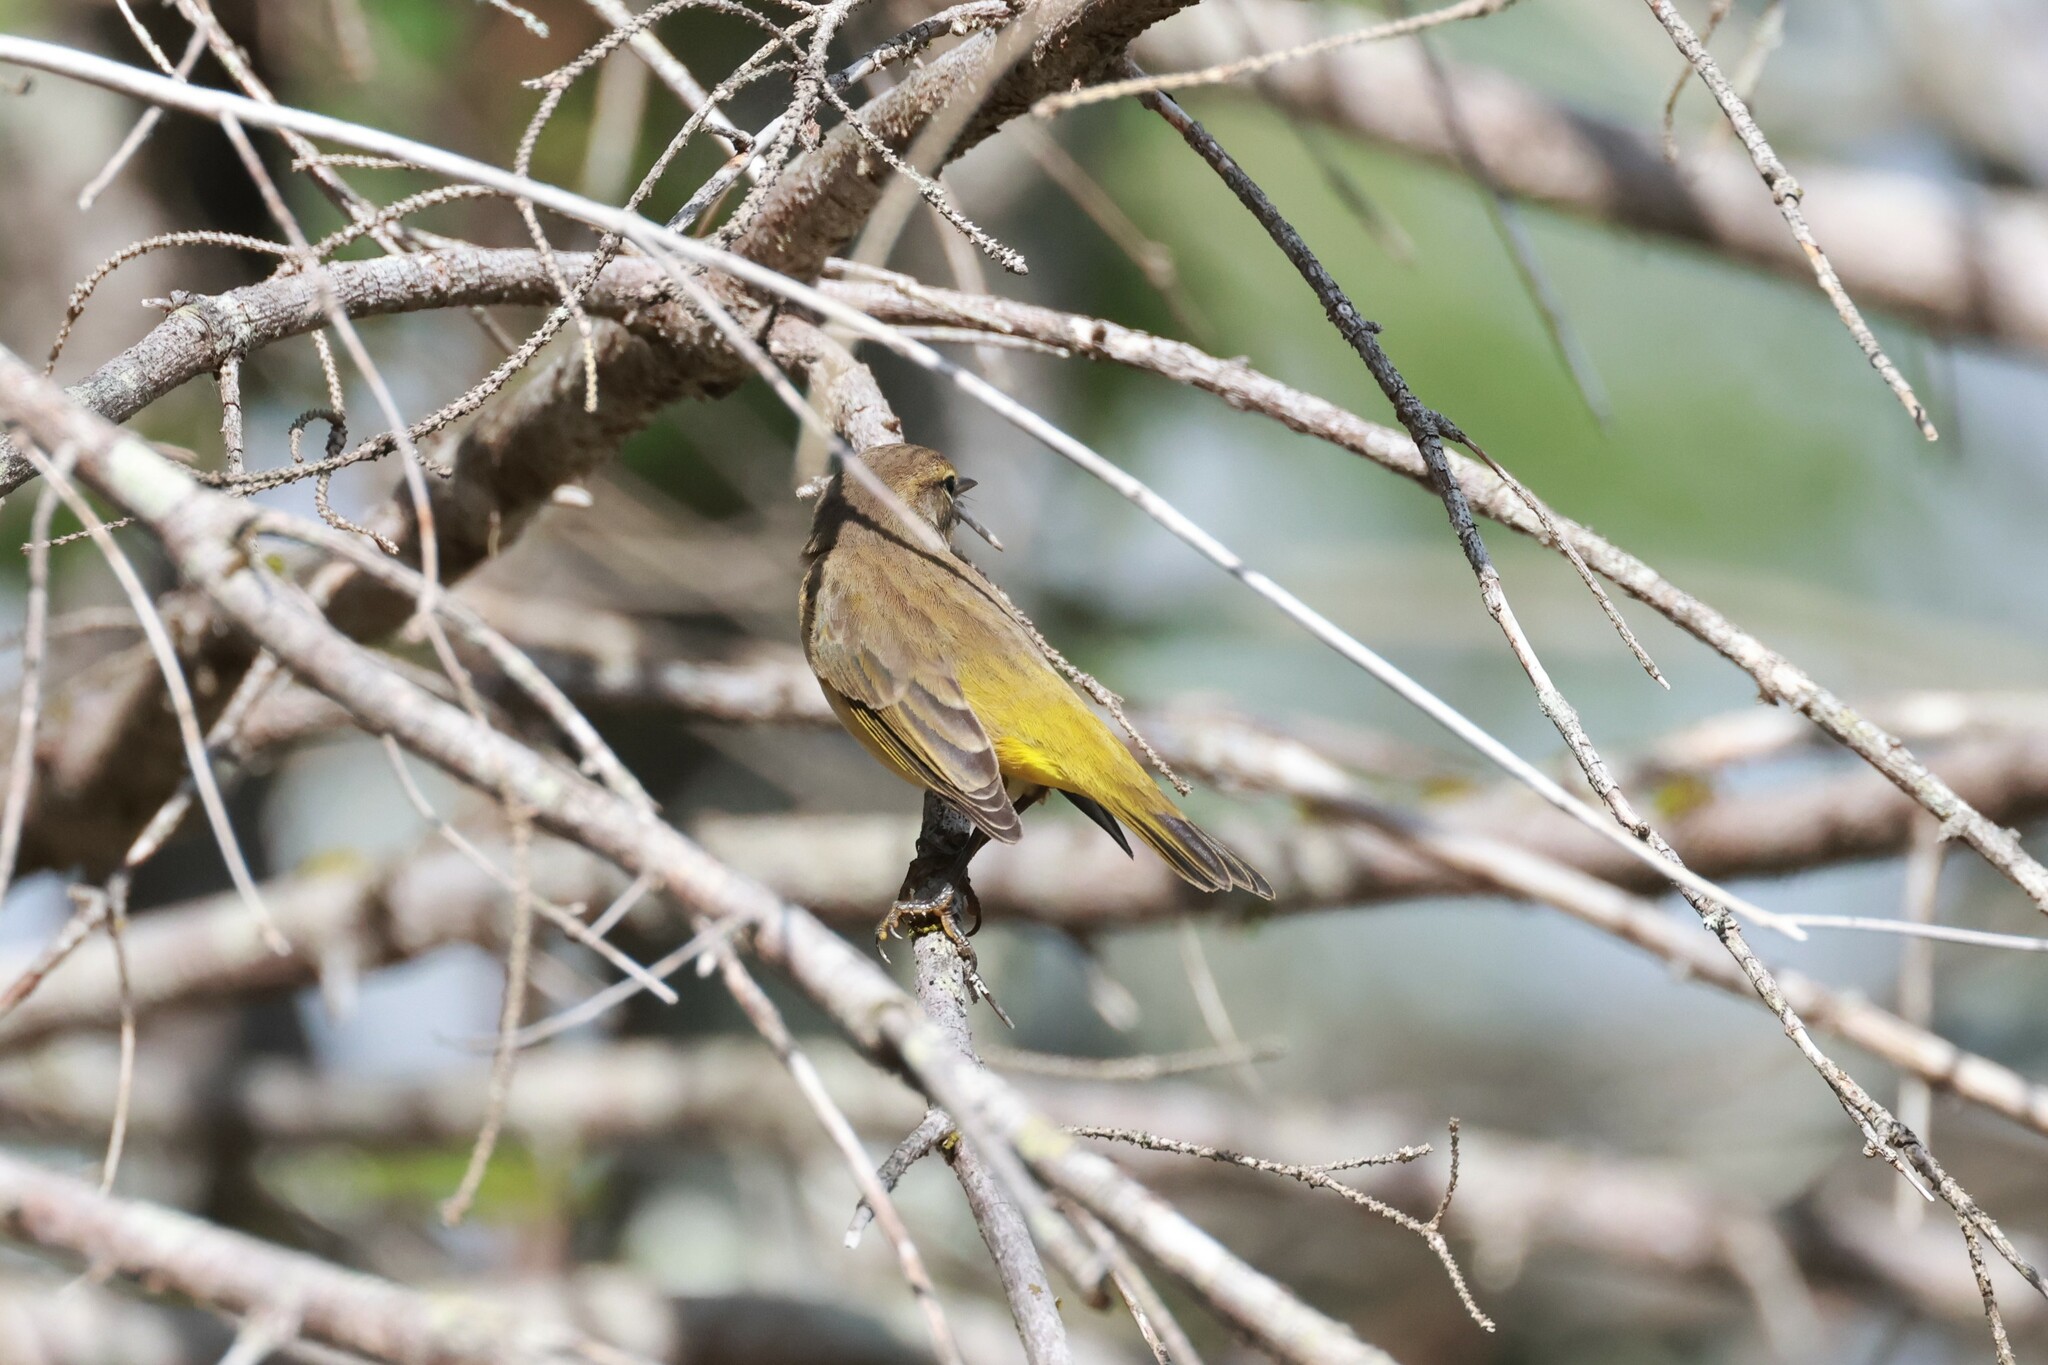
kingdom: Animalia
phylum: Chordata
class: Aves
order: Passeriformes
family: Parulidae
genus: Setophaga
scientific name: Setophaga palmarum
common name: Palm warbler
